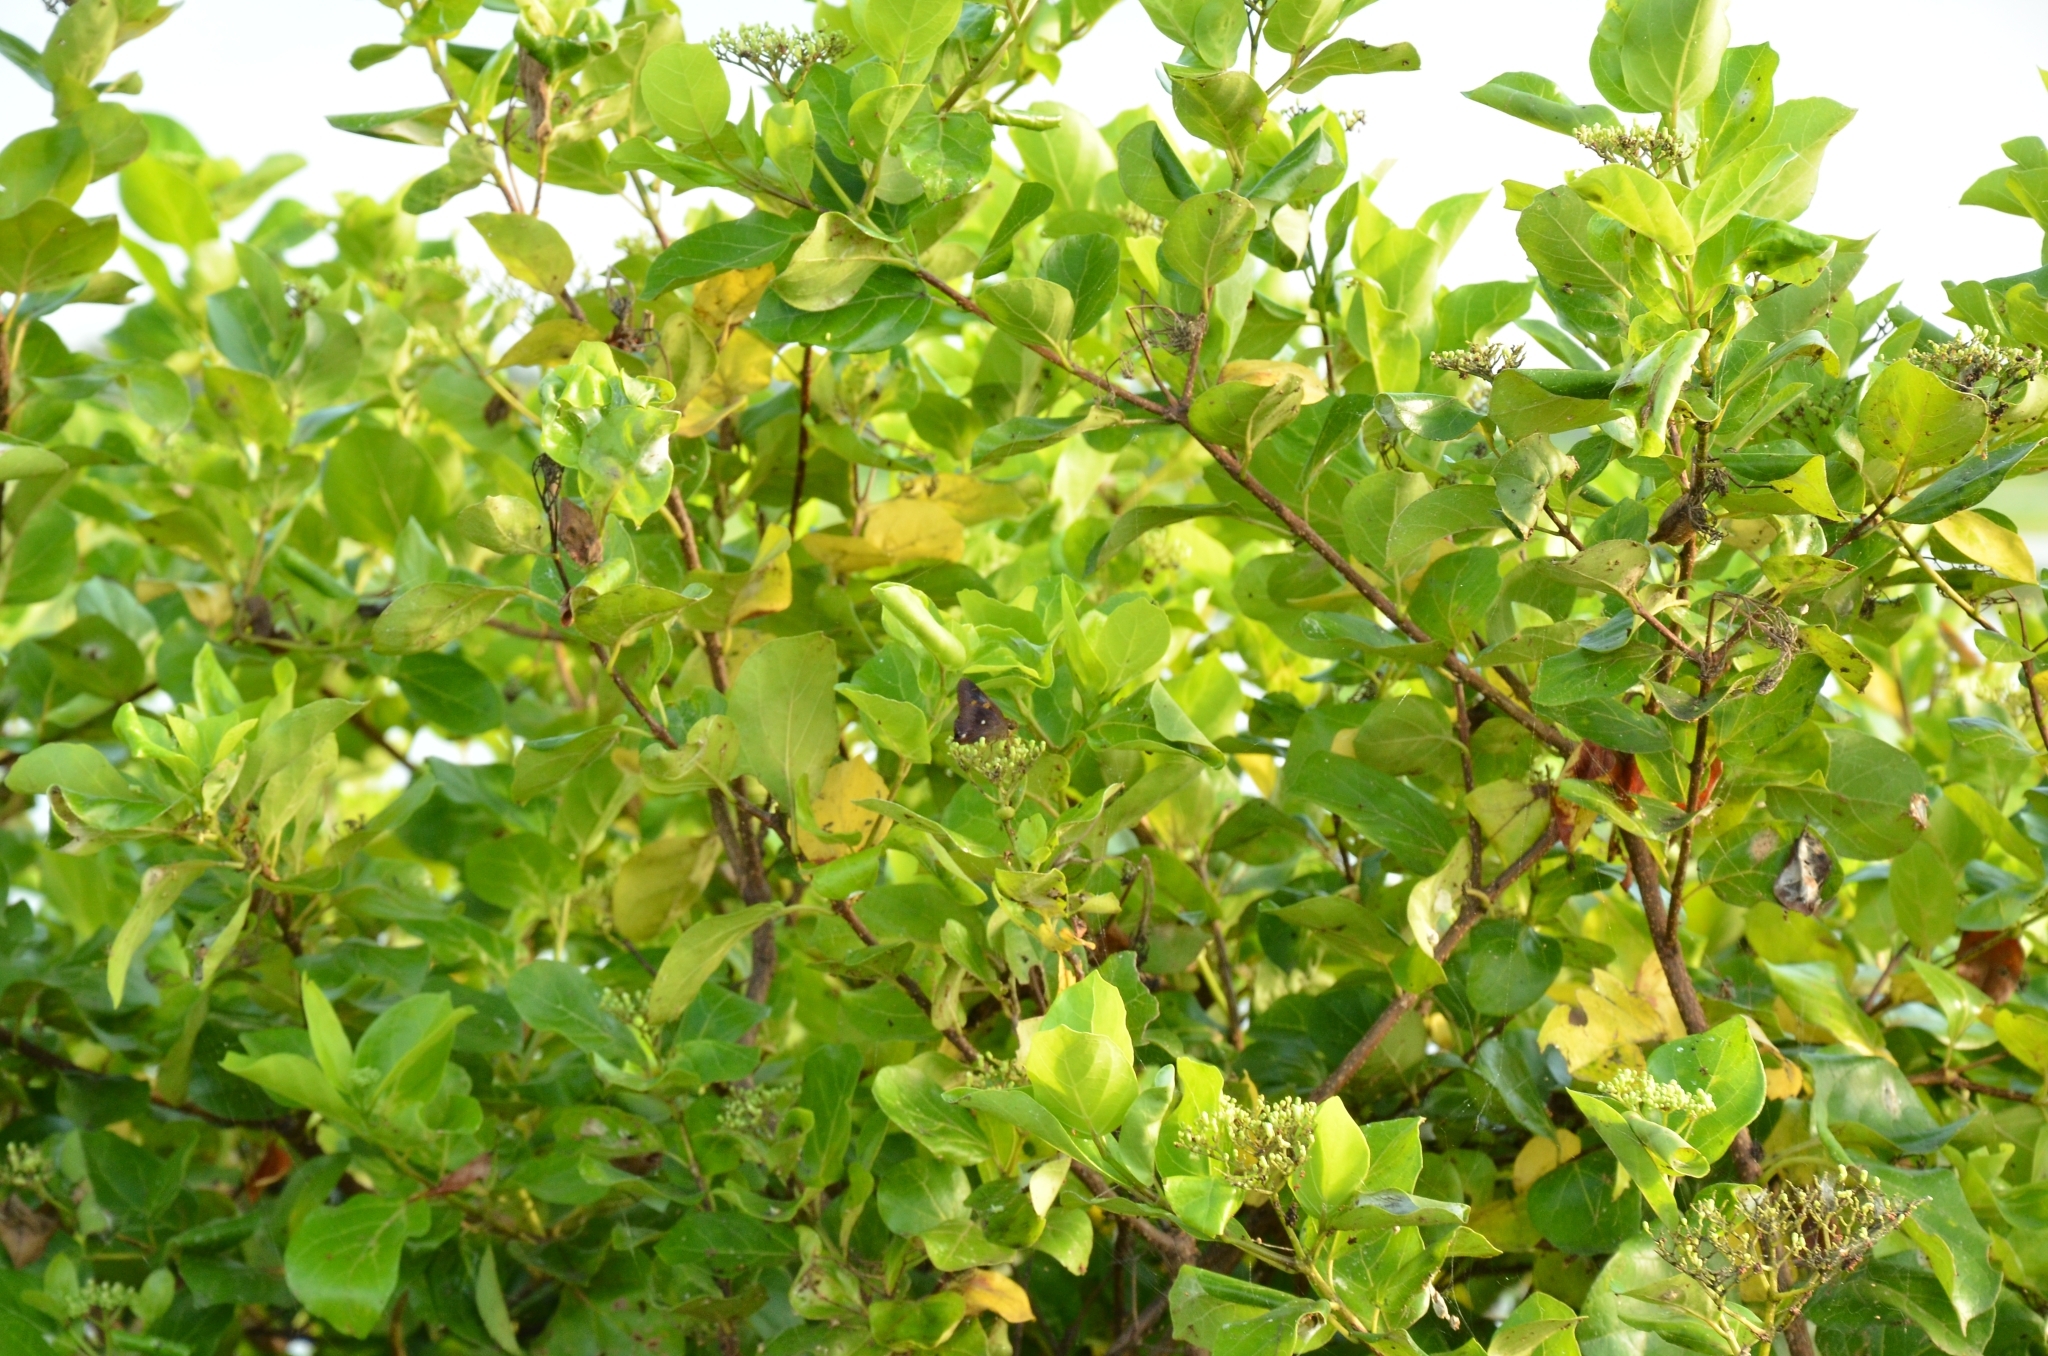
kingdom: Plantae
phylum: Tracheophyta
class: Magnoliopsida
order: Lamiales
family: Lamiaceae
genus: Premna
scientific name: Premna serratifolia
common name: Bastard guelder
